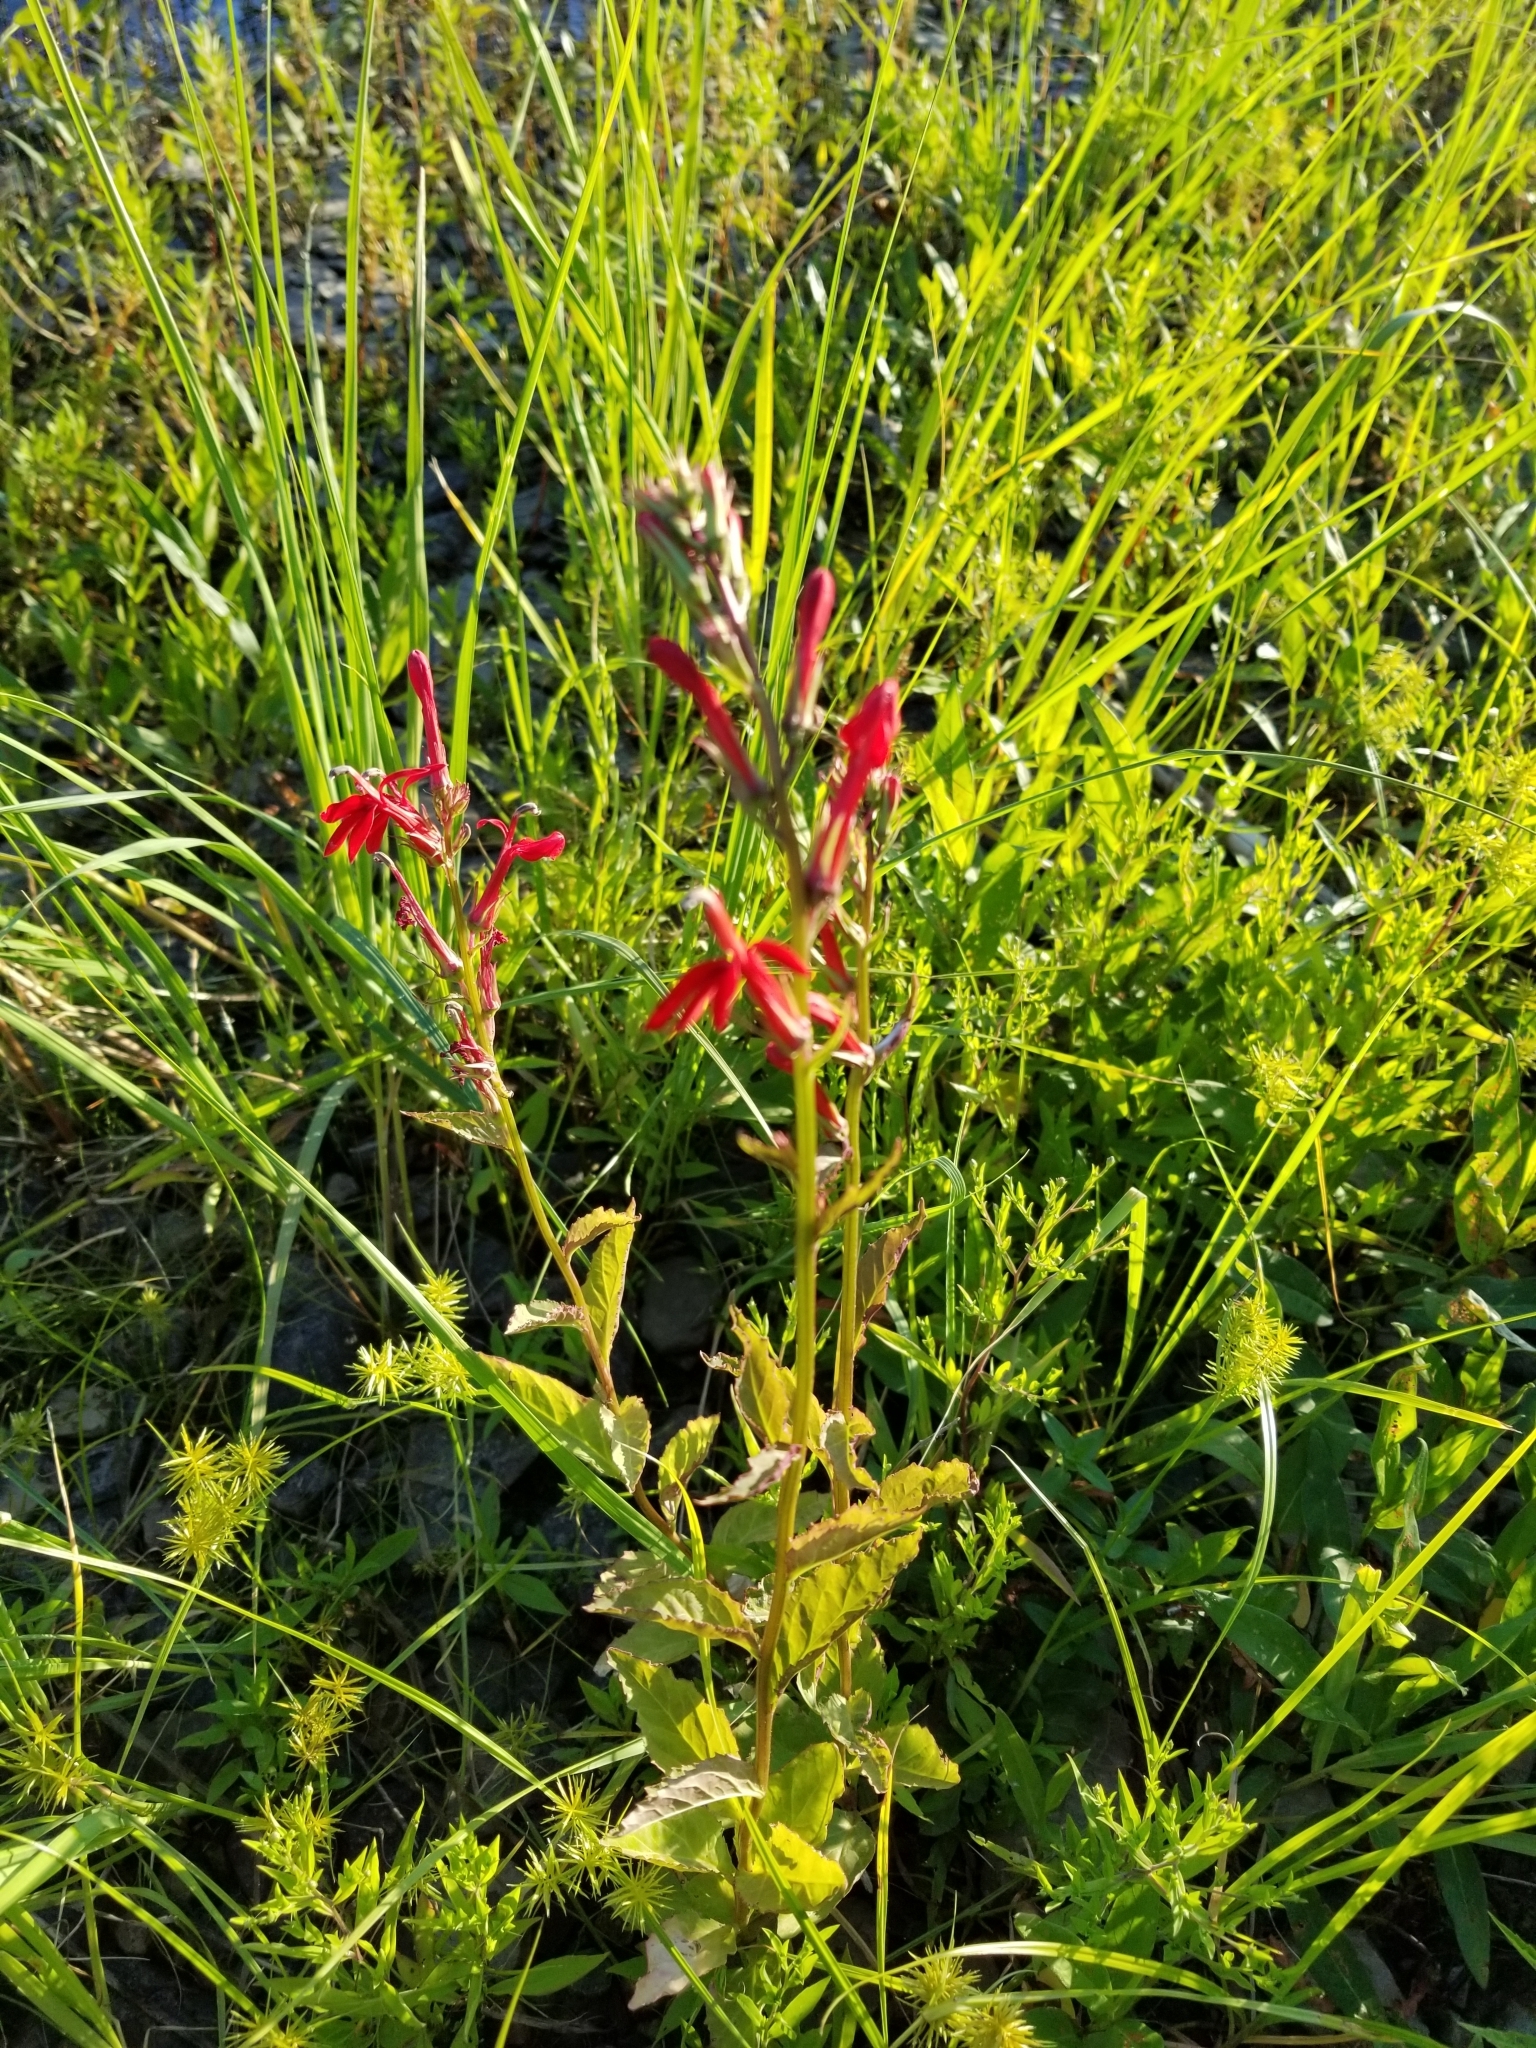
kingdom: Plantae
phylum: Tracheophyta
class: Magnoliopsida
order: Asterales
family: Campanulaceae
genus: Lobelia
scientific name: Lobelia cardinalis
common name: Cardinal flower
